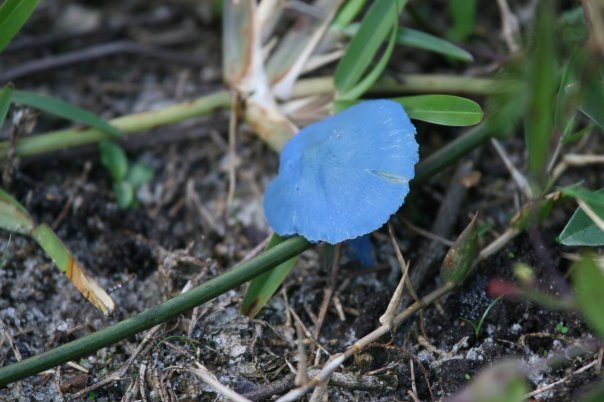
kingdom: Fungi
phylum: Basidiomycota
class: Agaricomycetes
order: Agaricales
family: Entolomataceae
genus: Entoloma
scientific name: Entoloma holocyaneum
